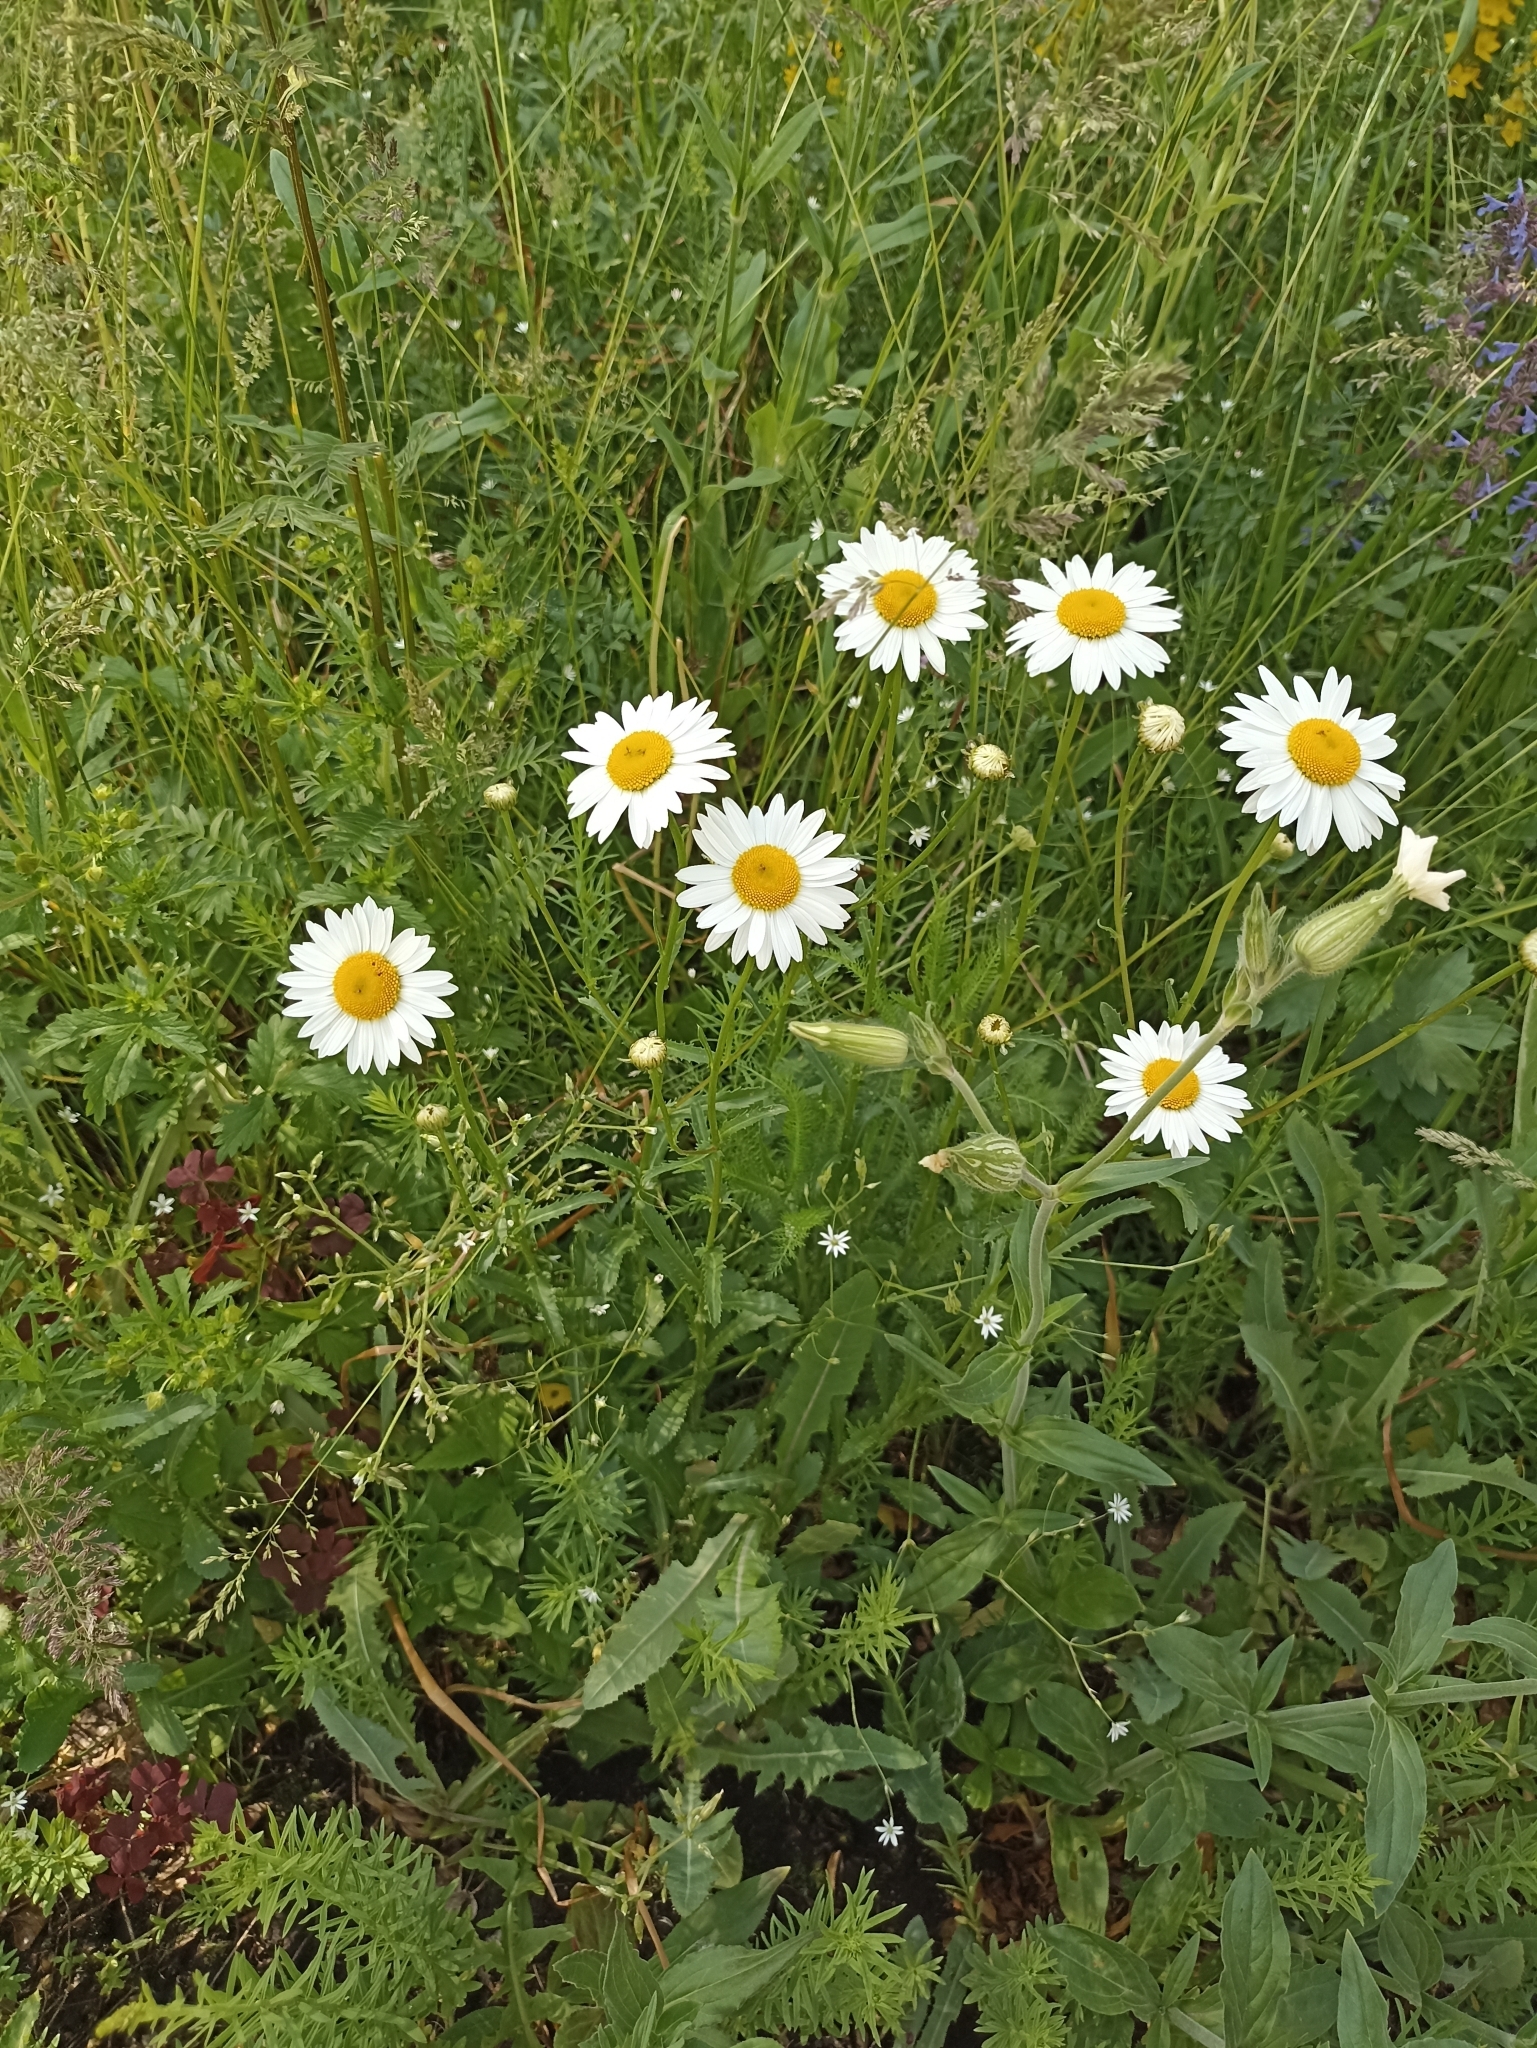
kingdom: Plantae
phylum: Tracheophyta
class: Magnoliopsida
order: Asterales
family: Asteraceae
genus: Leucanthemum
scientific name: Leucanthemum ircutianum
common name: Daisy
